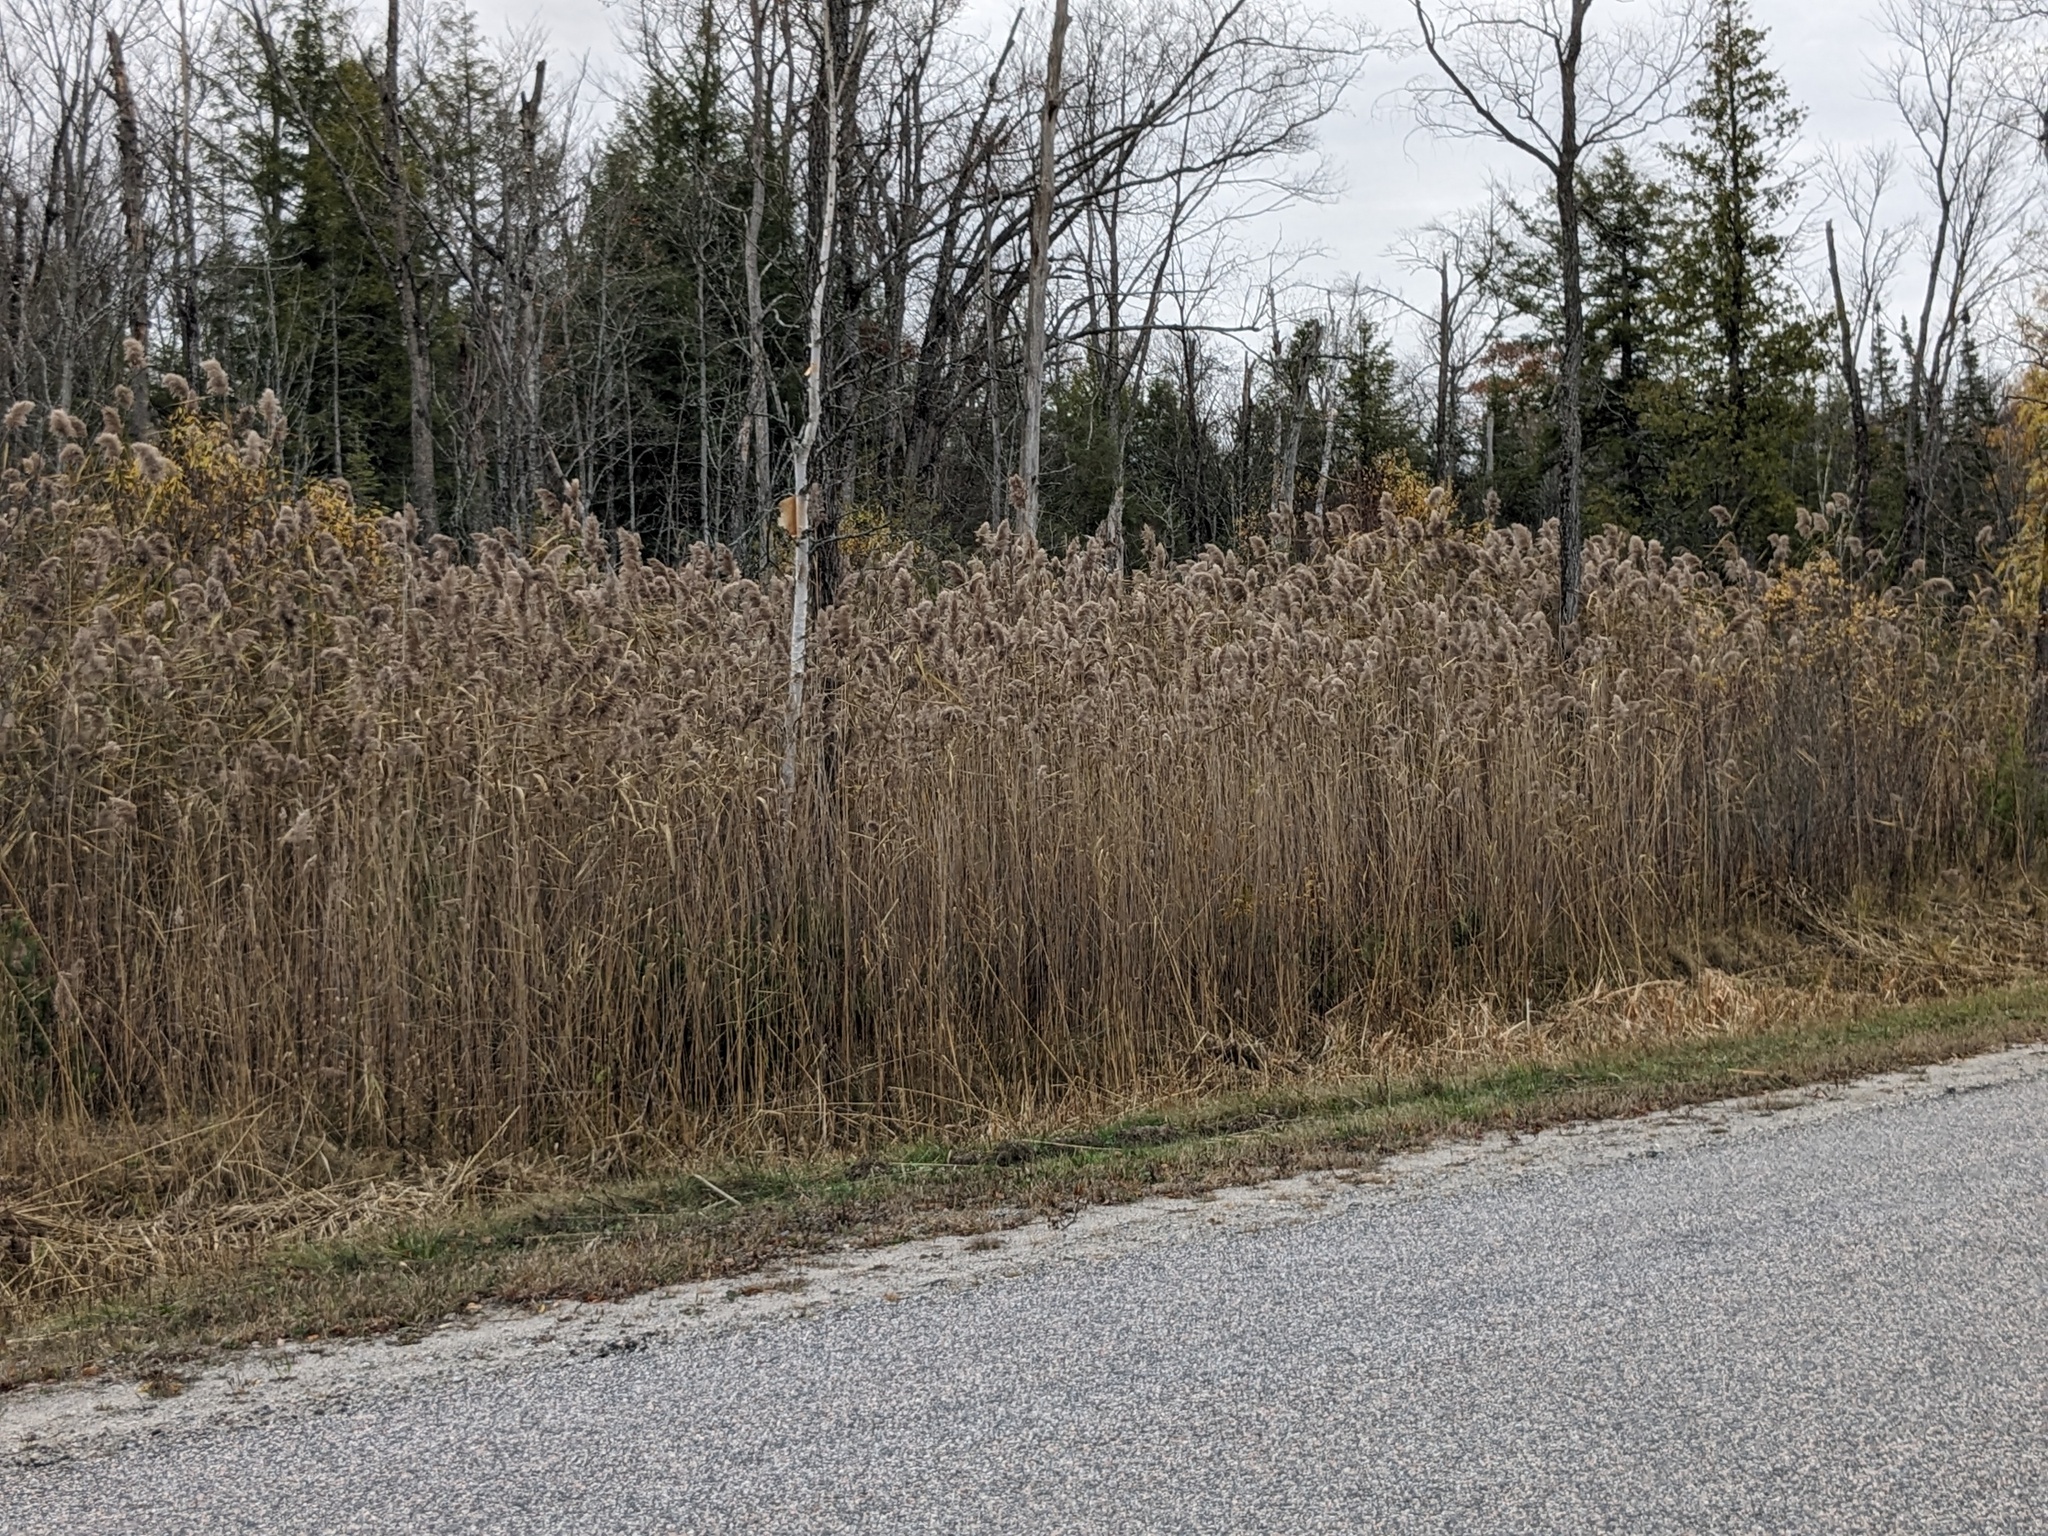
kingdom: Plantae
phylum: Tracheophyta
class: Liliopsida
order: Poales
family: Poaceae
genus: Phragmites
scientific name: Phragmites australis
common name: Common reed
